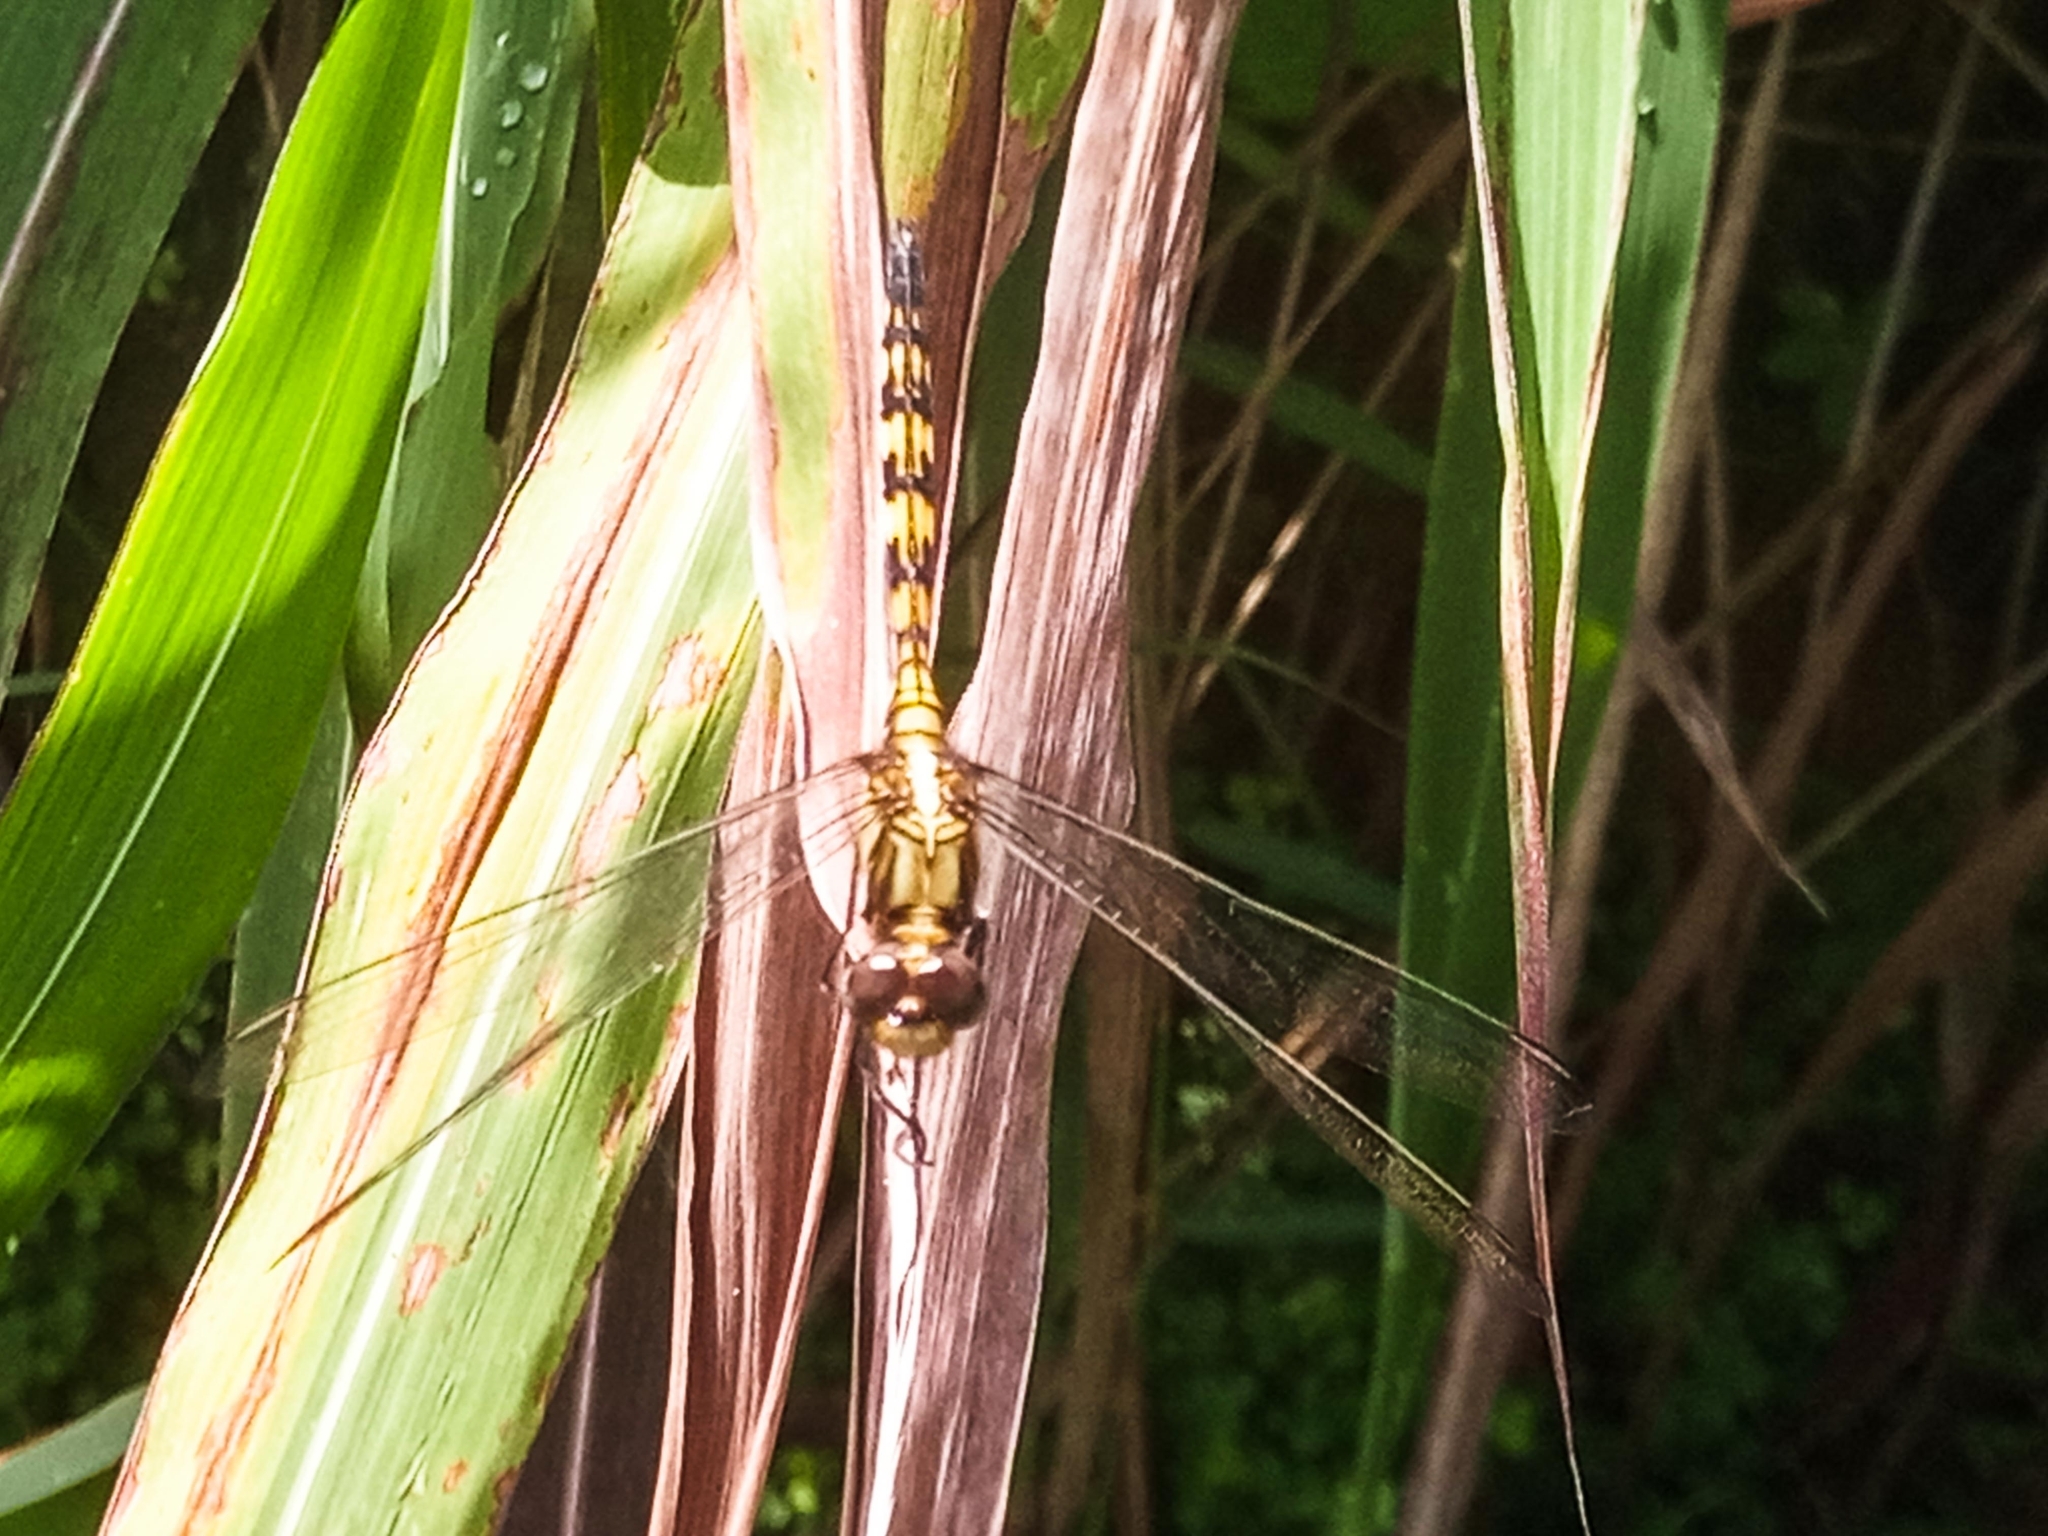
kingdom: Animalia
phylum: Arthropoda
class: Insecta
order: Odonata
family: Libellulidae
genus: Orthetrum
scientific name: Orthetrum brachiale
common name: Banded skimmer
